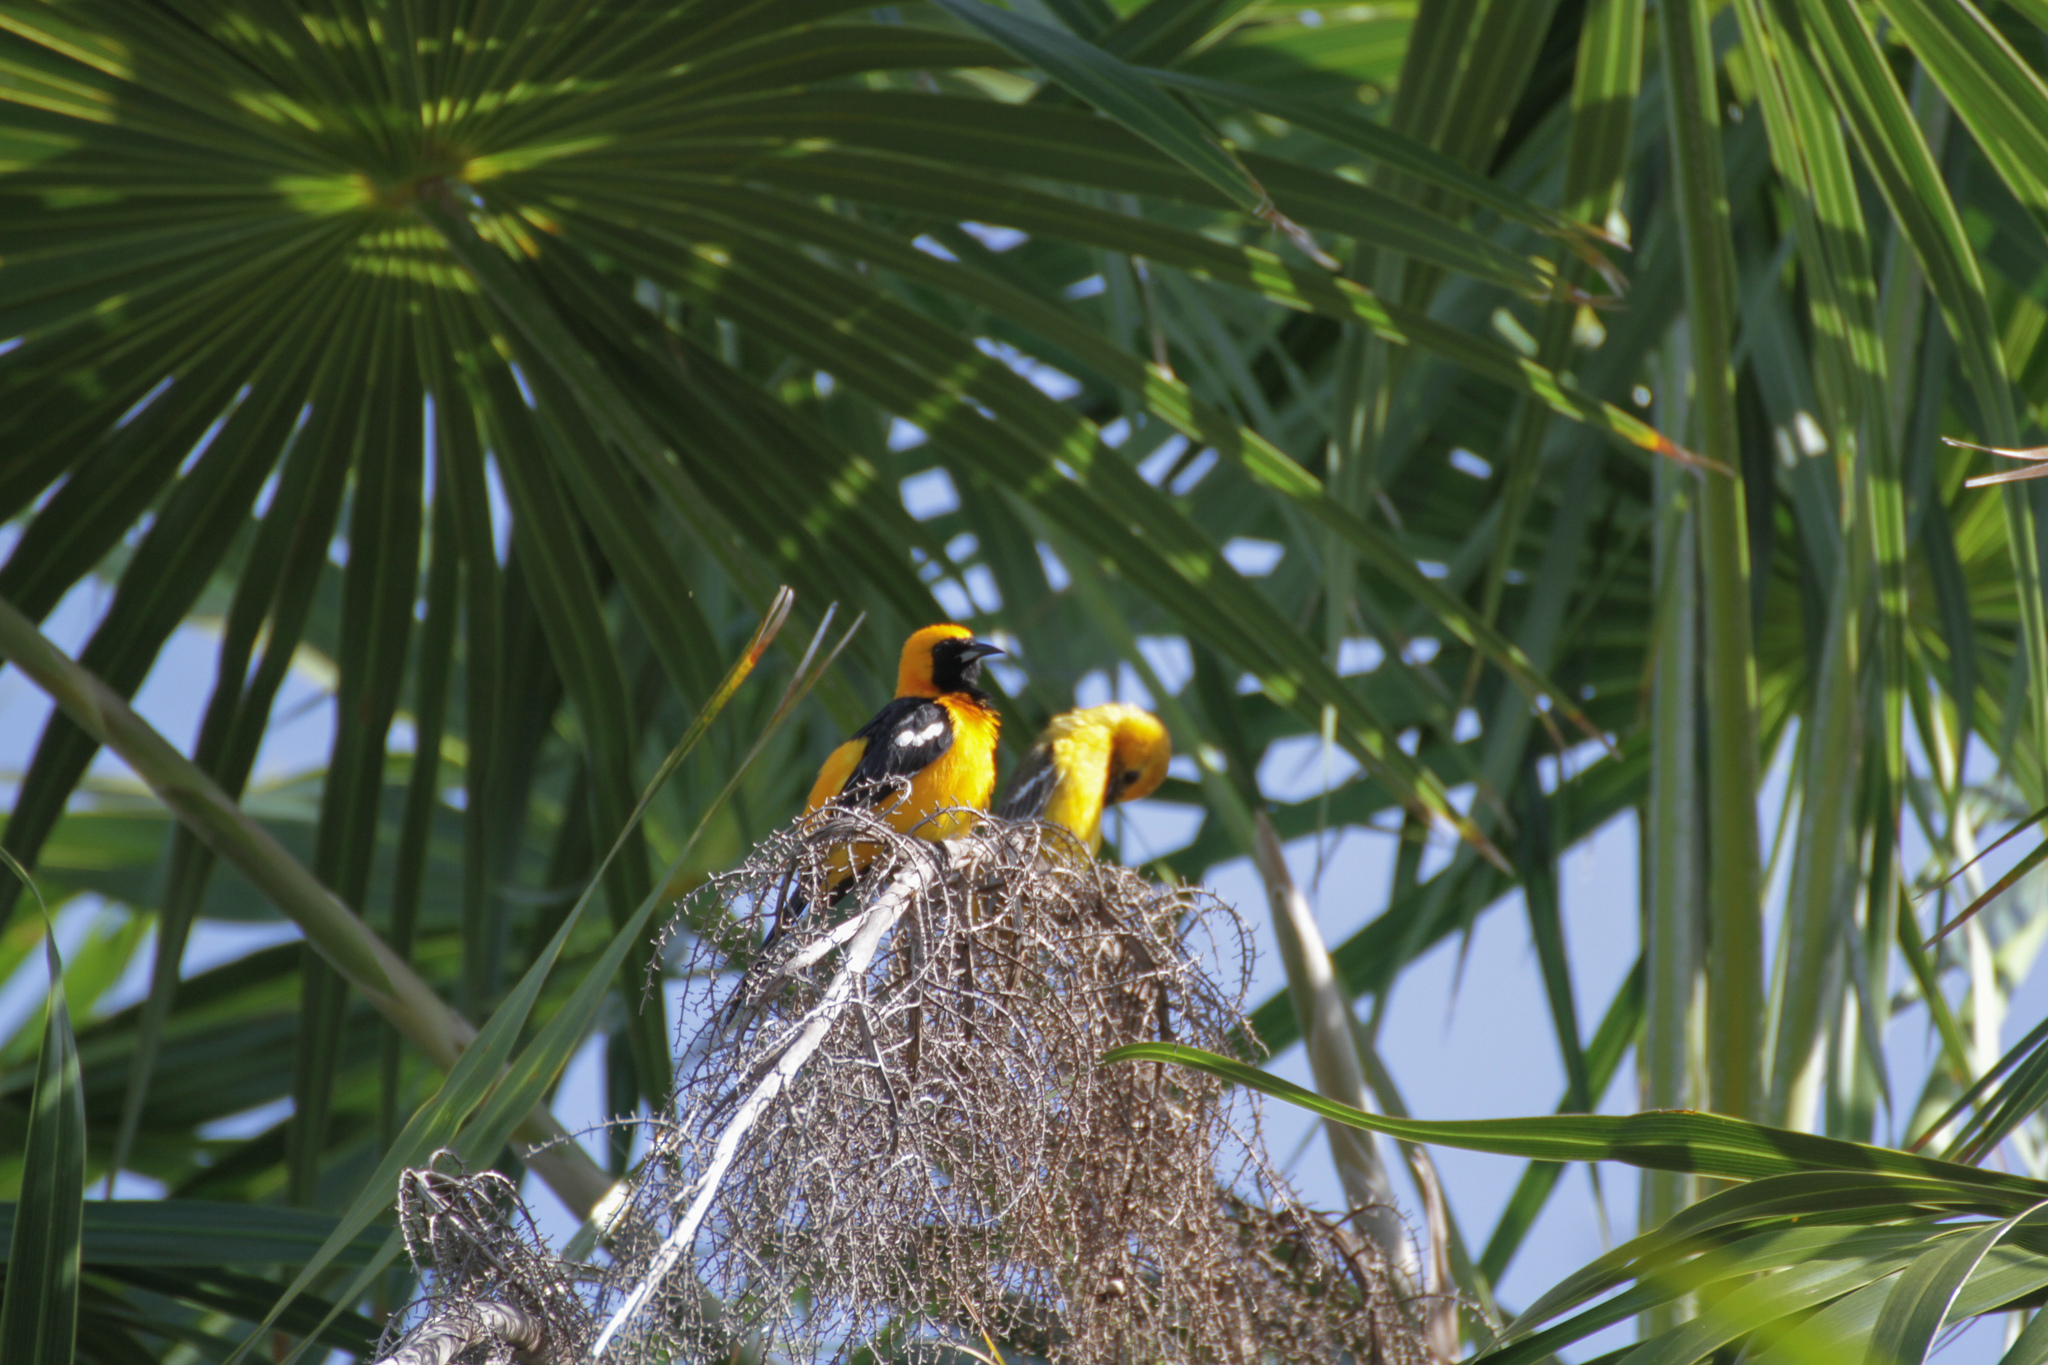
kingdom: Animalia
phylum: Chordata
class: Aves
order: Passeriformes
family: Icteridae
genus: Icterus
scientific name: Icterus cucullatus
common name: Hooded oriole
